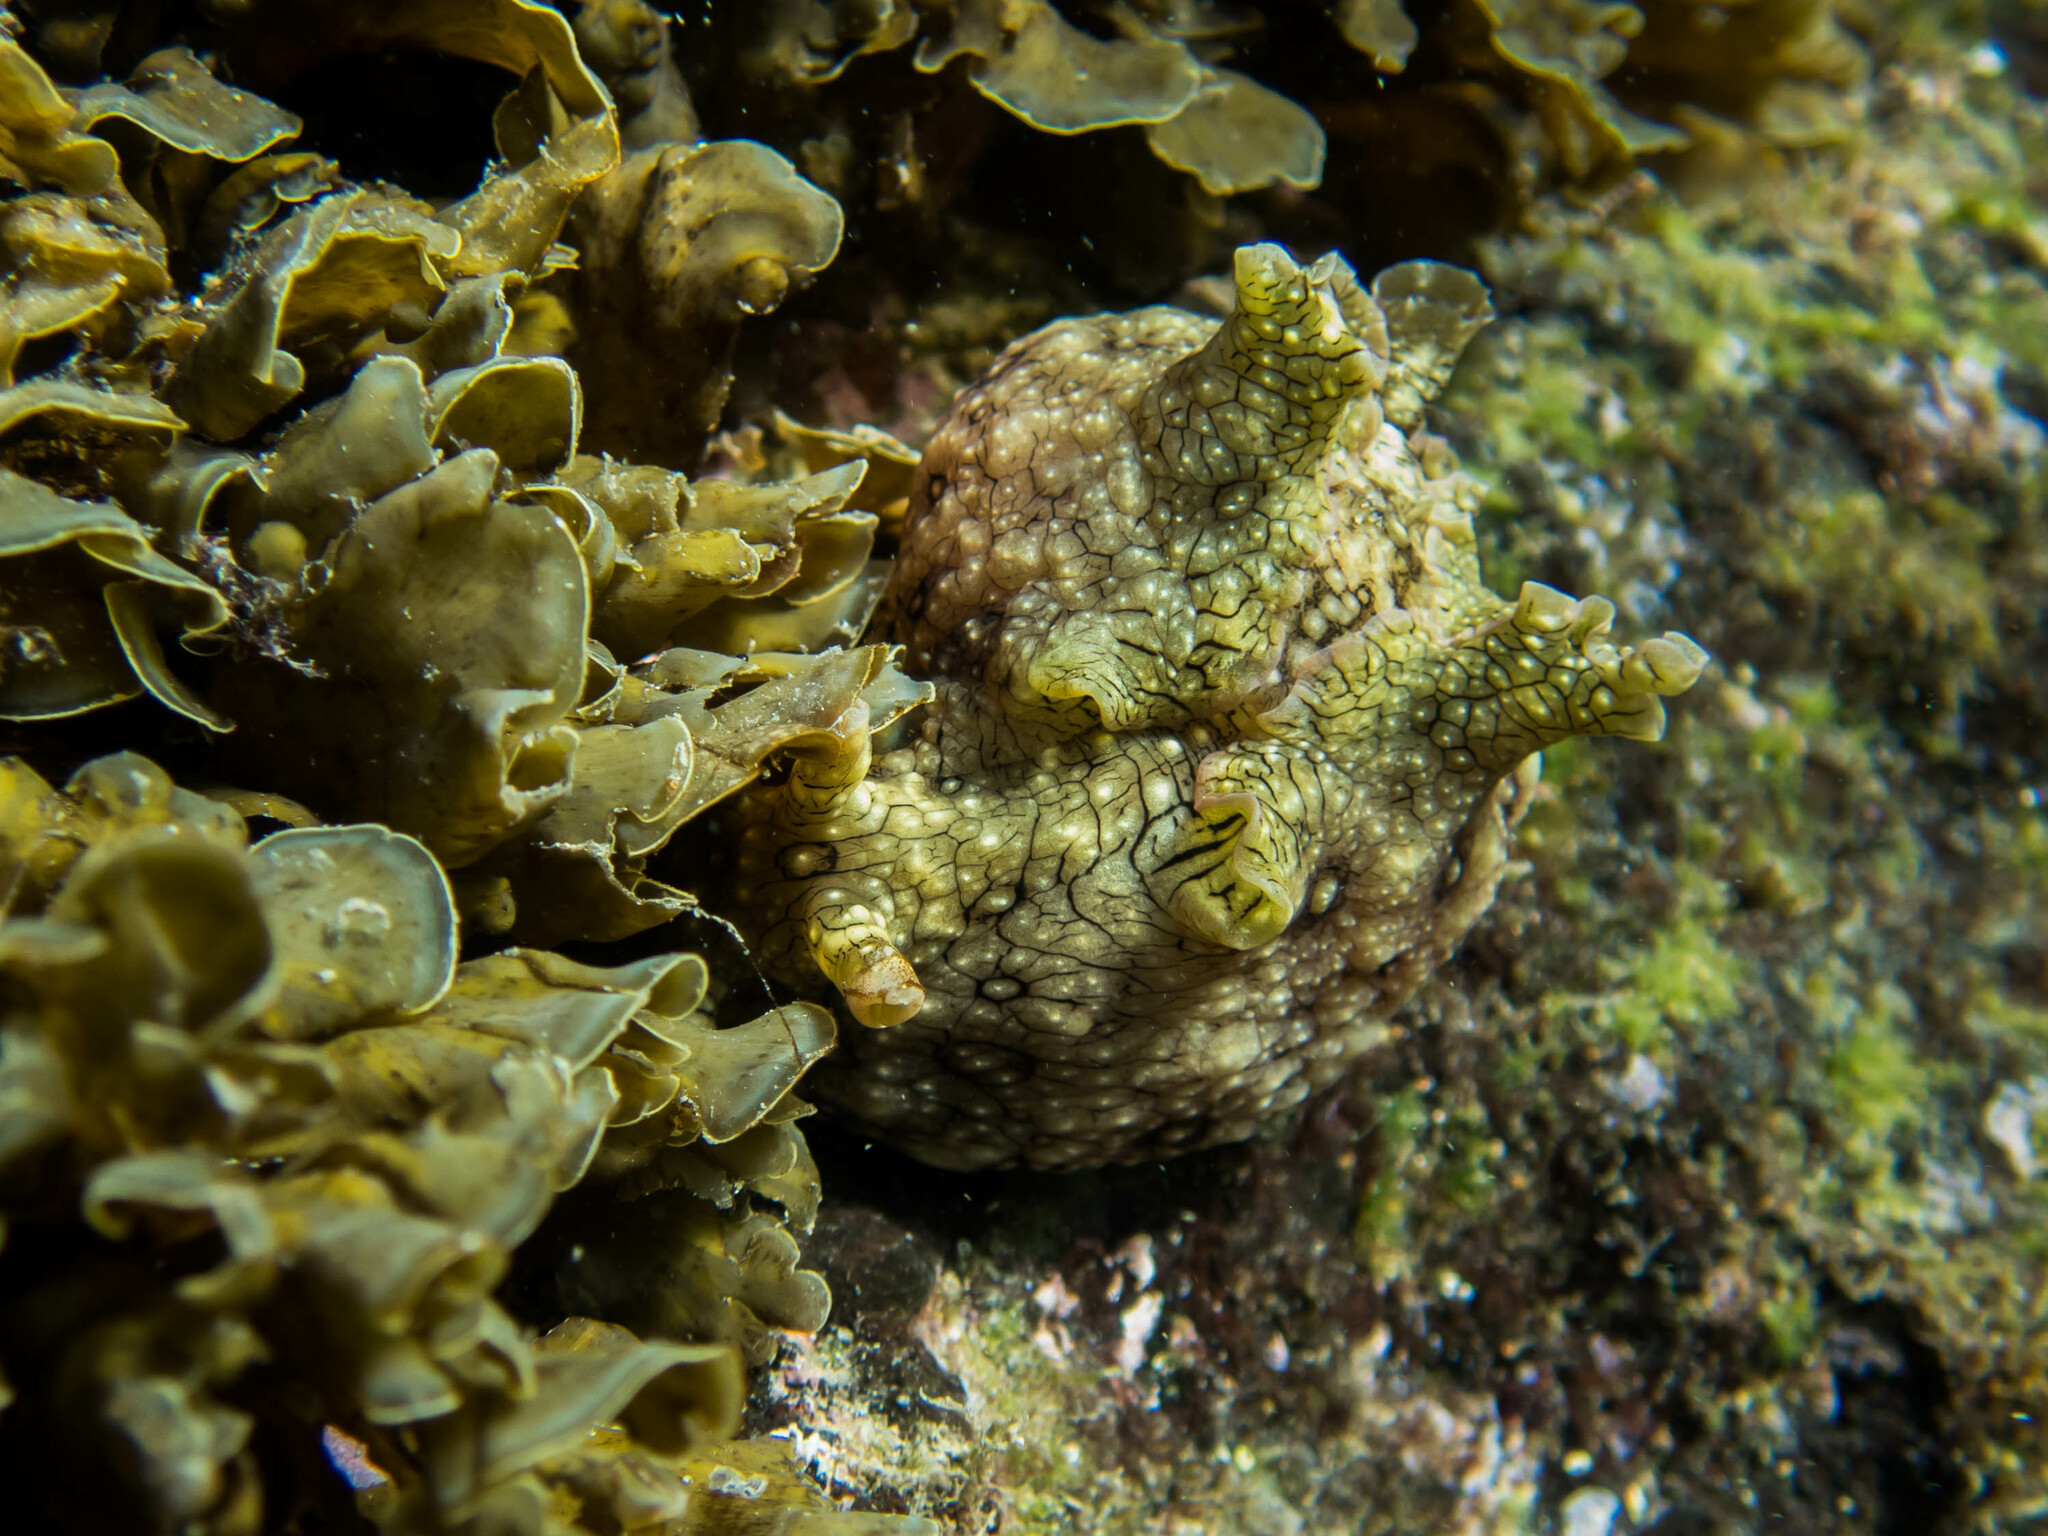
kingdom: Animalia
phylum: Mollusca
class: Gastropoda
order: Aplysiida
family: Aplysiidae
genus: Aplysia
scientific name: Aplysia argus
